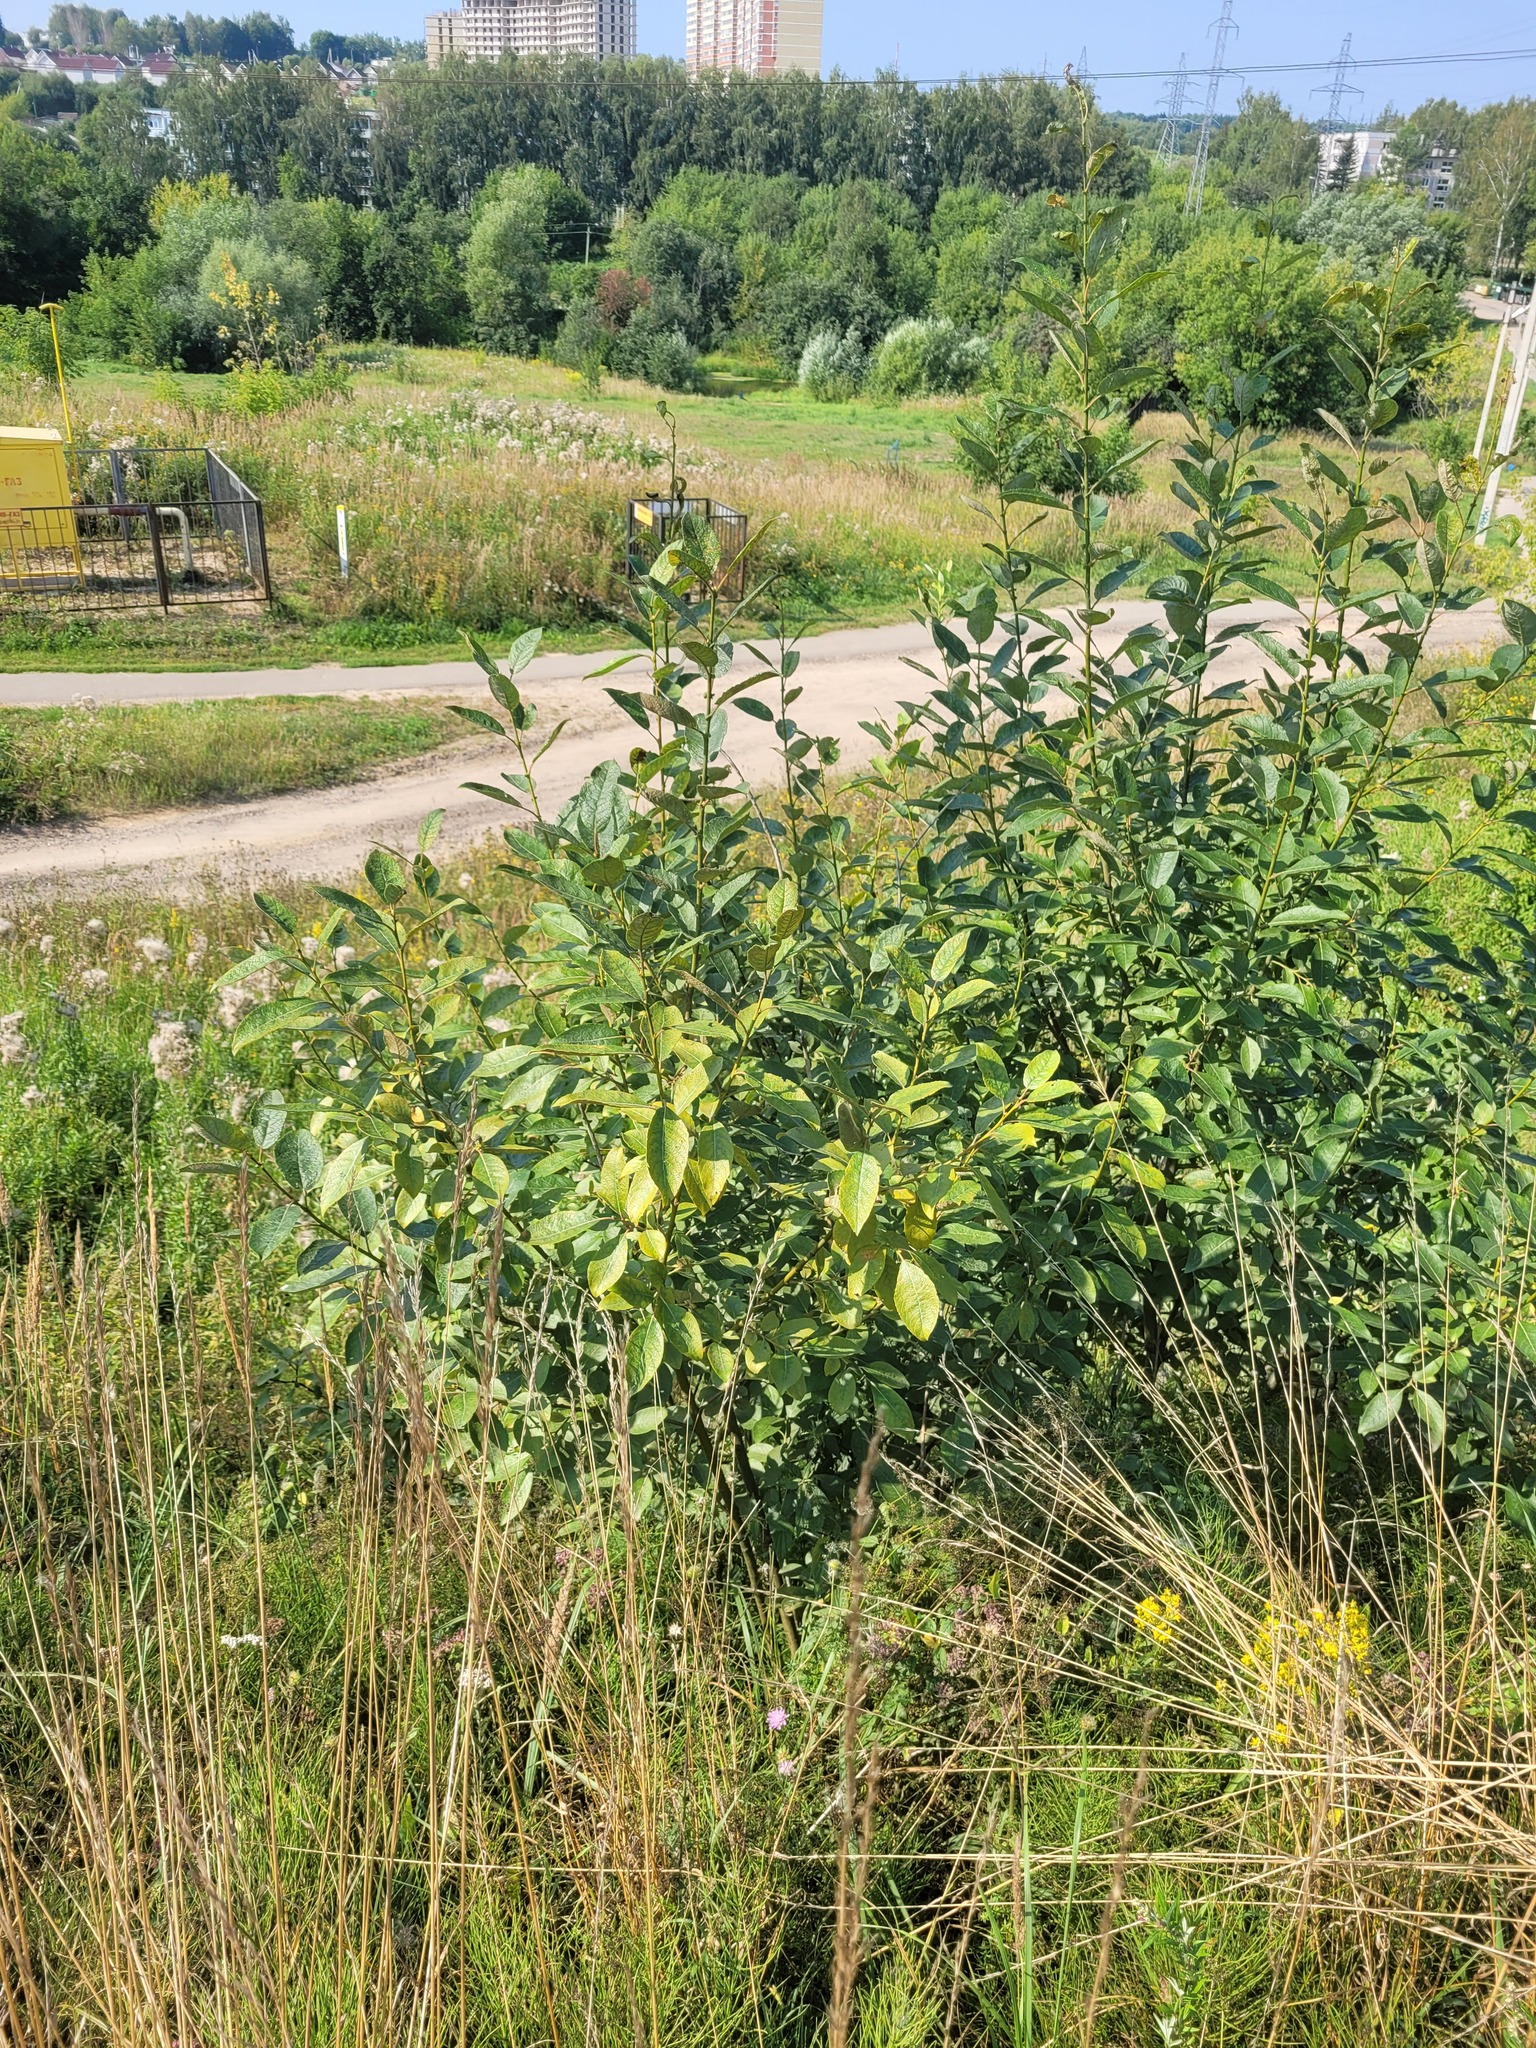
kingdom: Plantae
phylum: Tracheophyta
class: Magnoliopsida
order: Malpighiales
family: Salicaceae
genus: Salix
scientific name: Salix caprea
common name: Goat willow
